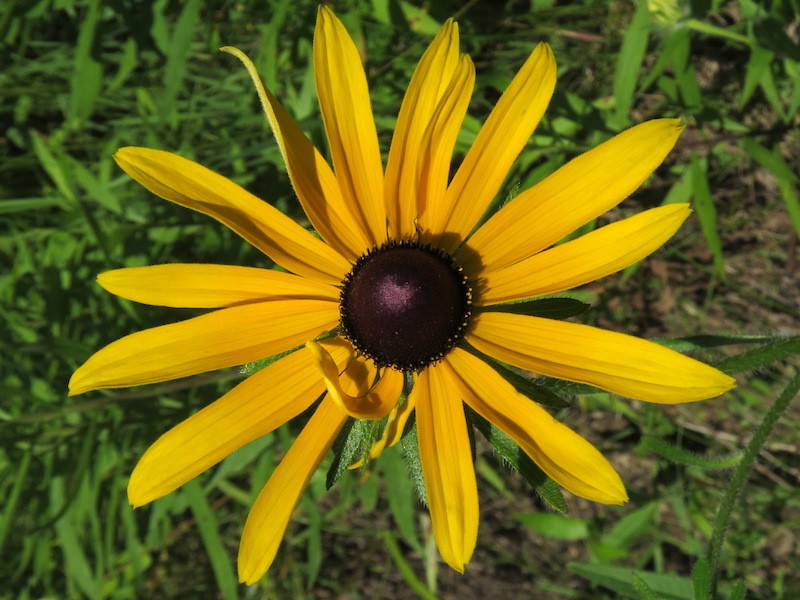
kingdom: Plantae
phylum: Tracheophyta
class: Magnoliopsida
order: Asterales
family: Asteraceae
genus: Rudbeckia
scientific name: Rudbeckia hirta
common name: Black-eyed-susan
